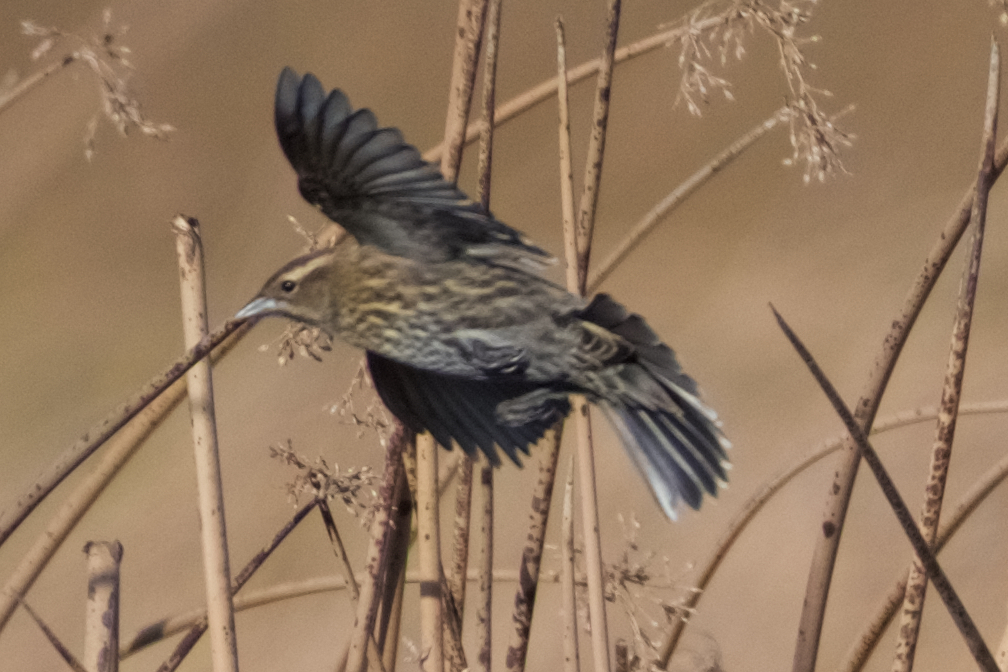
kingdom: Animalia
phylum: Chordata
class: Aves
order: Passeriformes
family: Icteridae
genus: Agelaius
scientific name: Agelaius phoeniceus
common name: Red-winged blackbird
